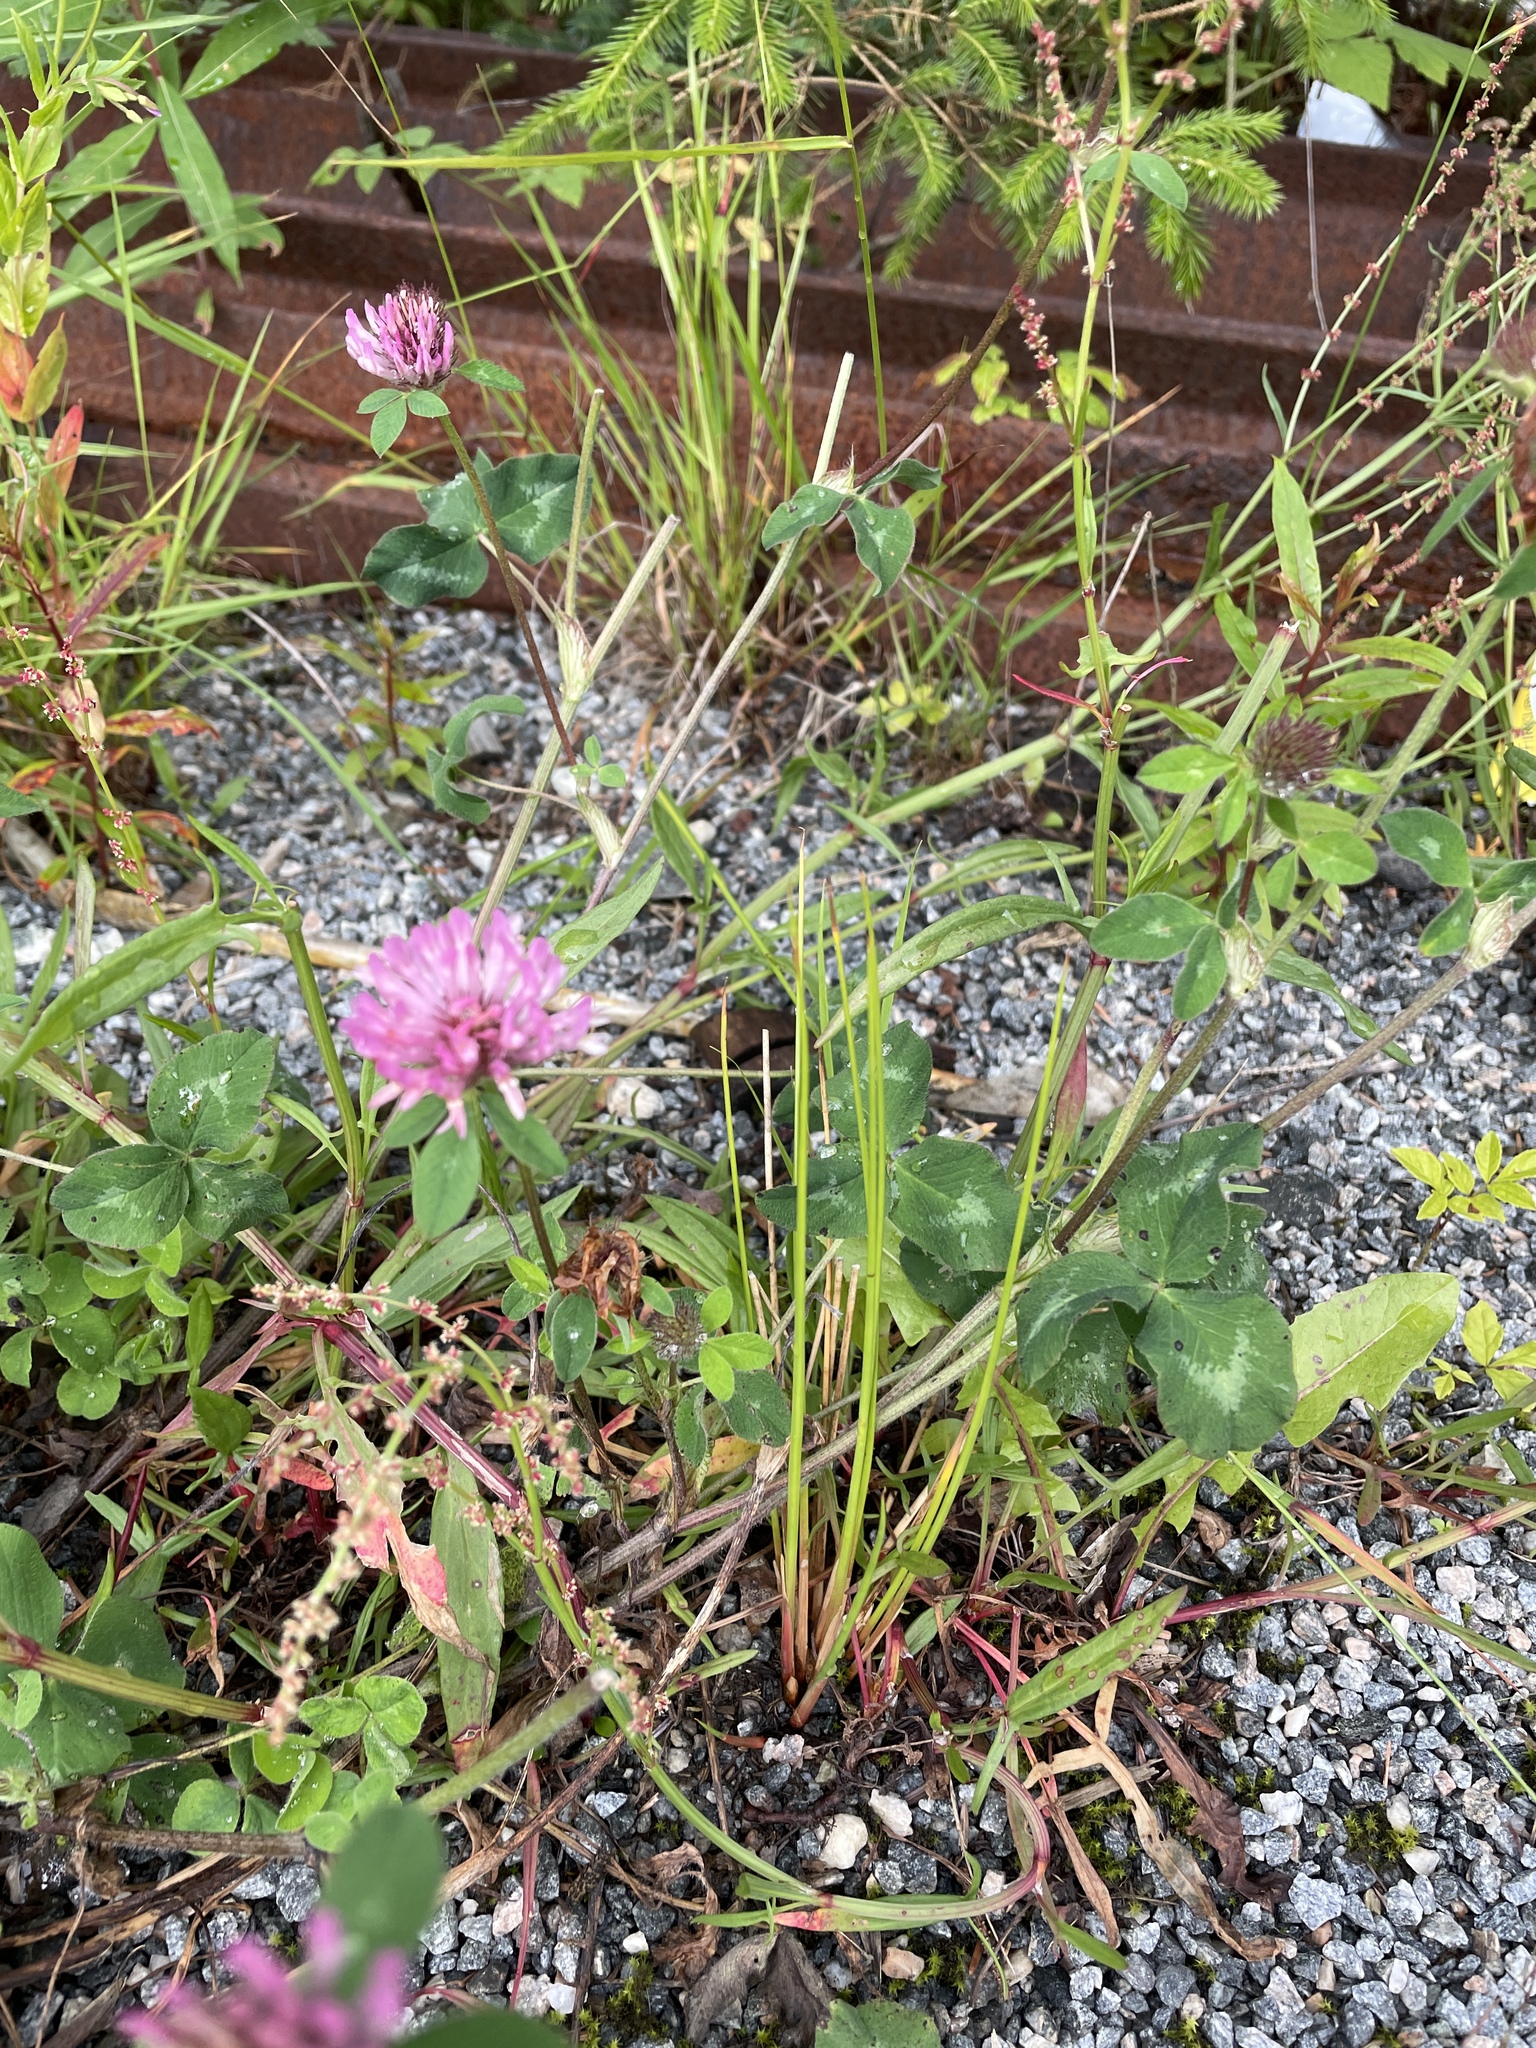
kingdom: Plantae
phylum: Tracheophyta
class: Magnoliopsida
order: Fabales
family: Fabaceae
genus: Trifolium
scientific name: Trifolium pratense
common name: Red clover
